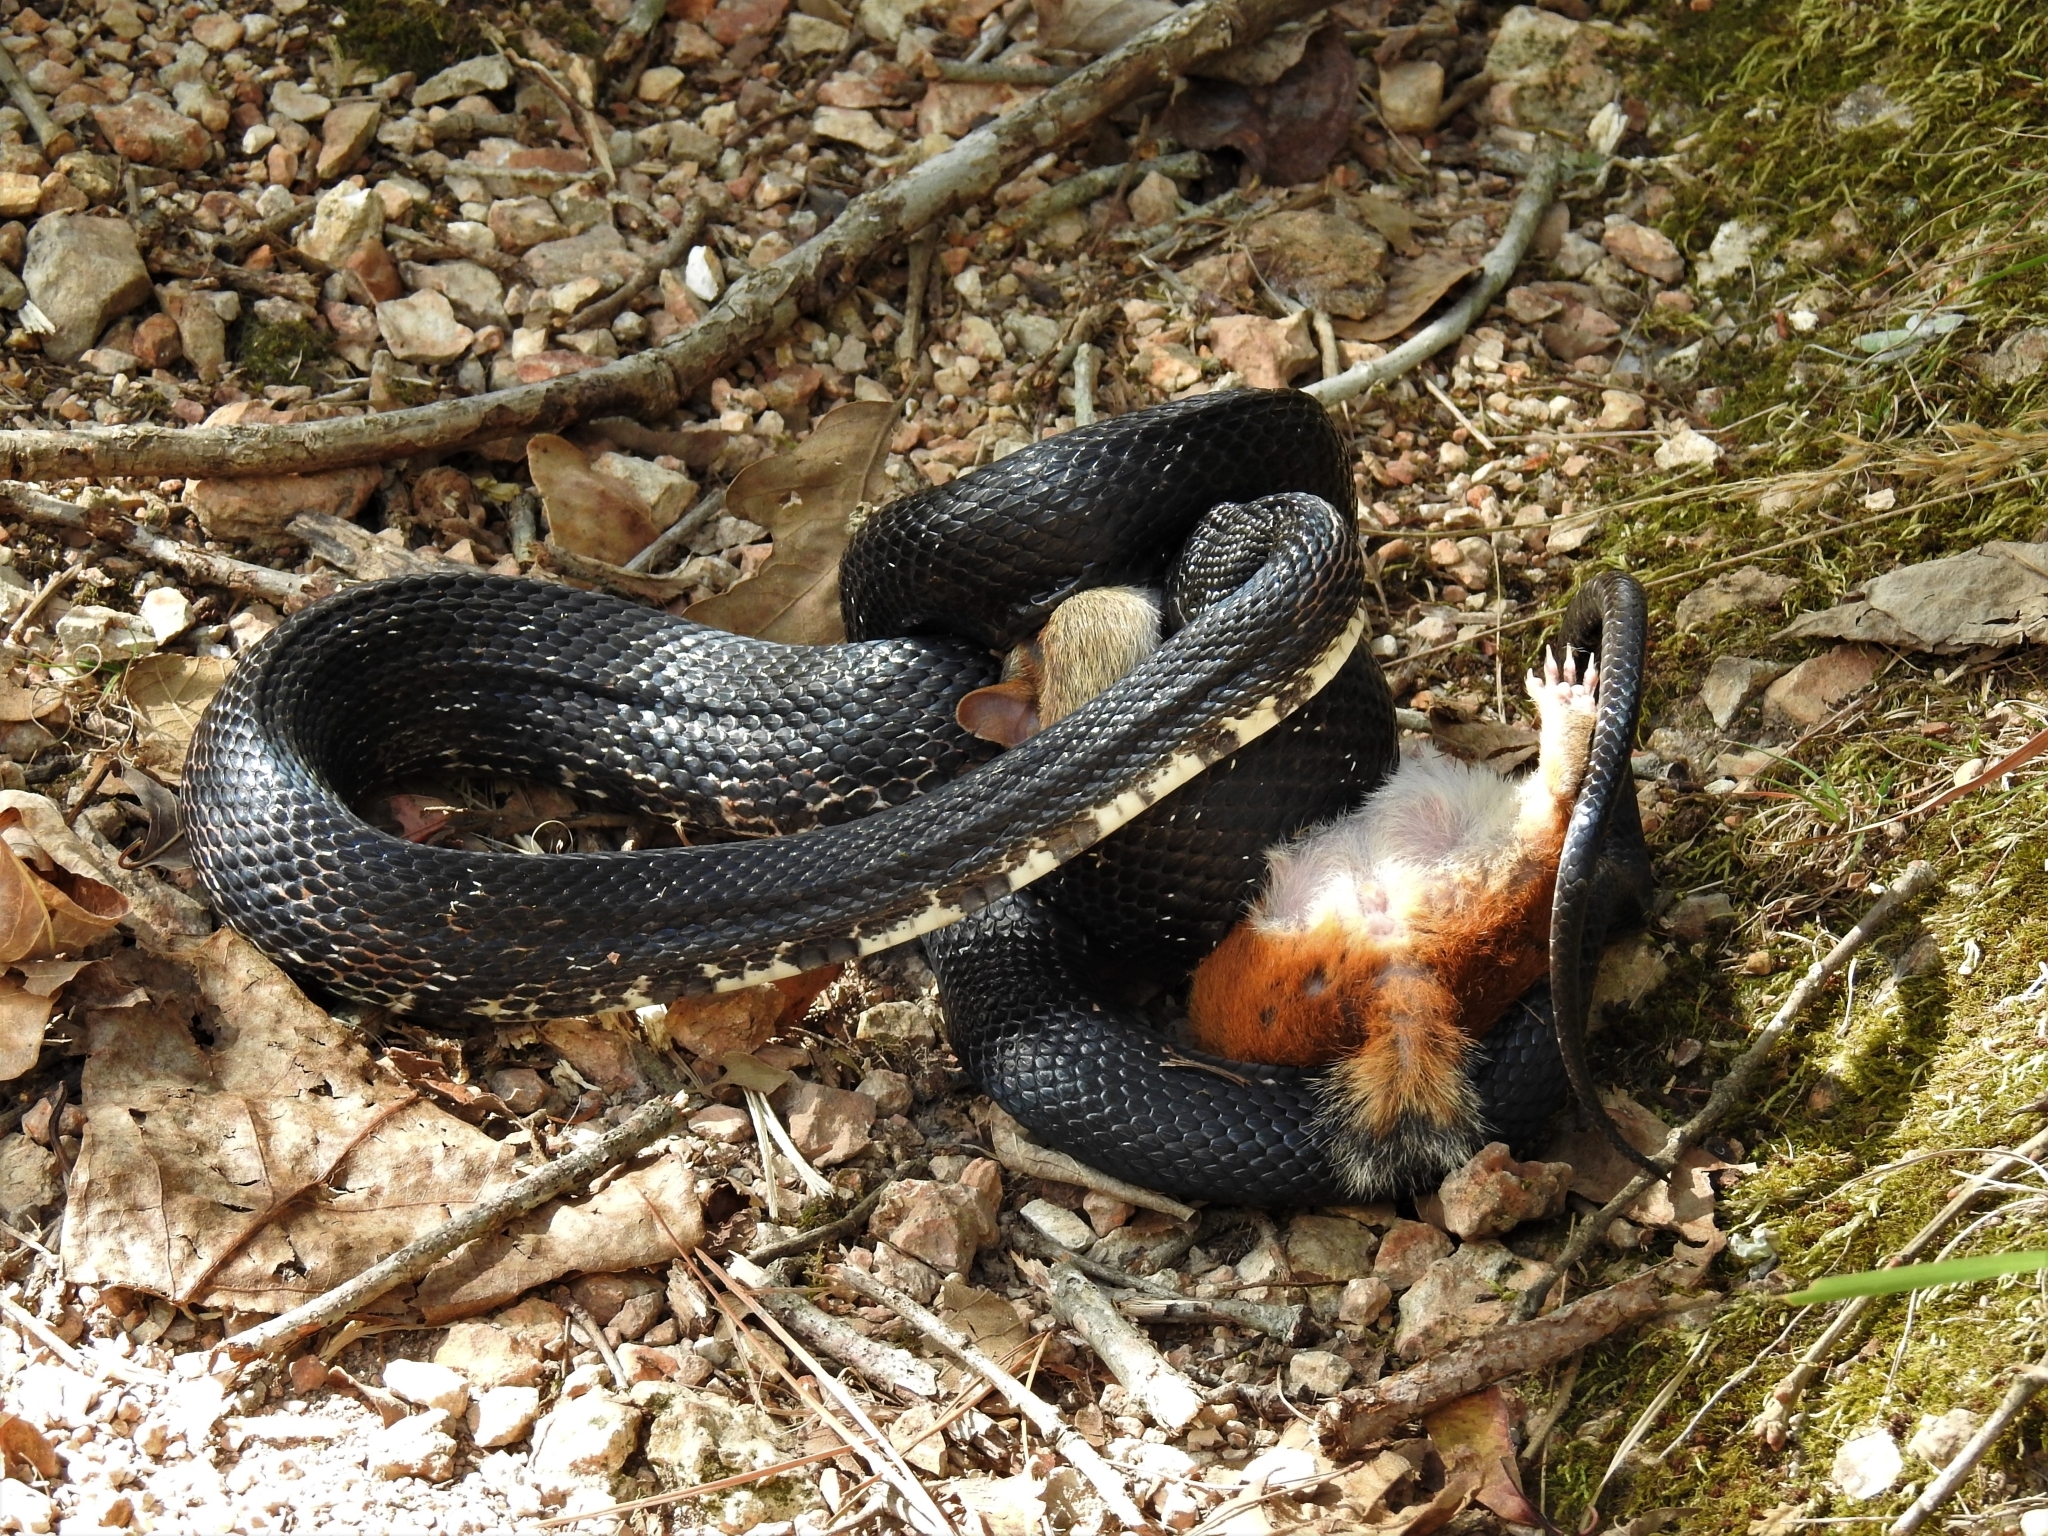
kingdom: Animalia
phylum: Chordata
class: Squamata
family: Colubridae
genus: Pantherophis
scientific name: Pantherophis obsoletus
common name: Black rat snake
